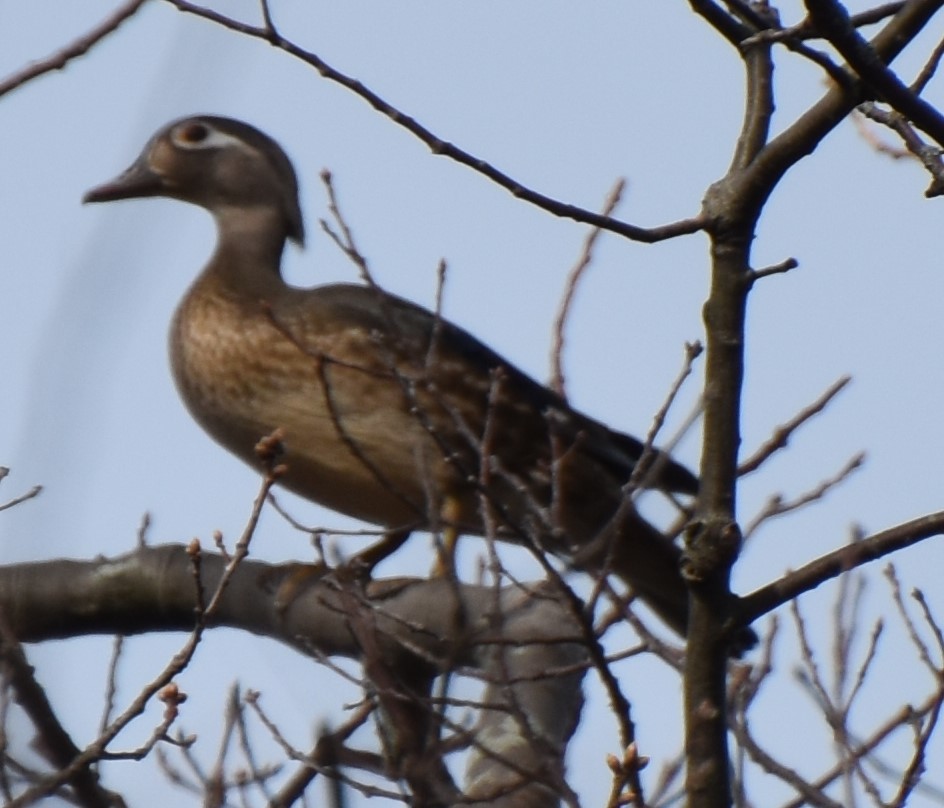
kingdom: Animalia
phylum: Chordata
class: Aves
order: Anseriformes
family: Anatidae
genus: Aix
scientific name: Aix sponsa
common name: Wood duck
